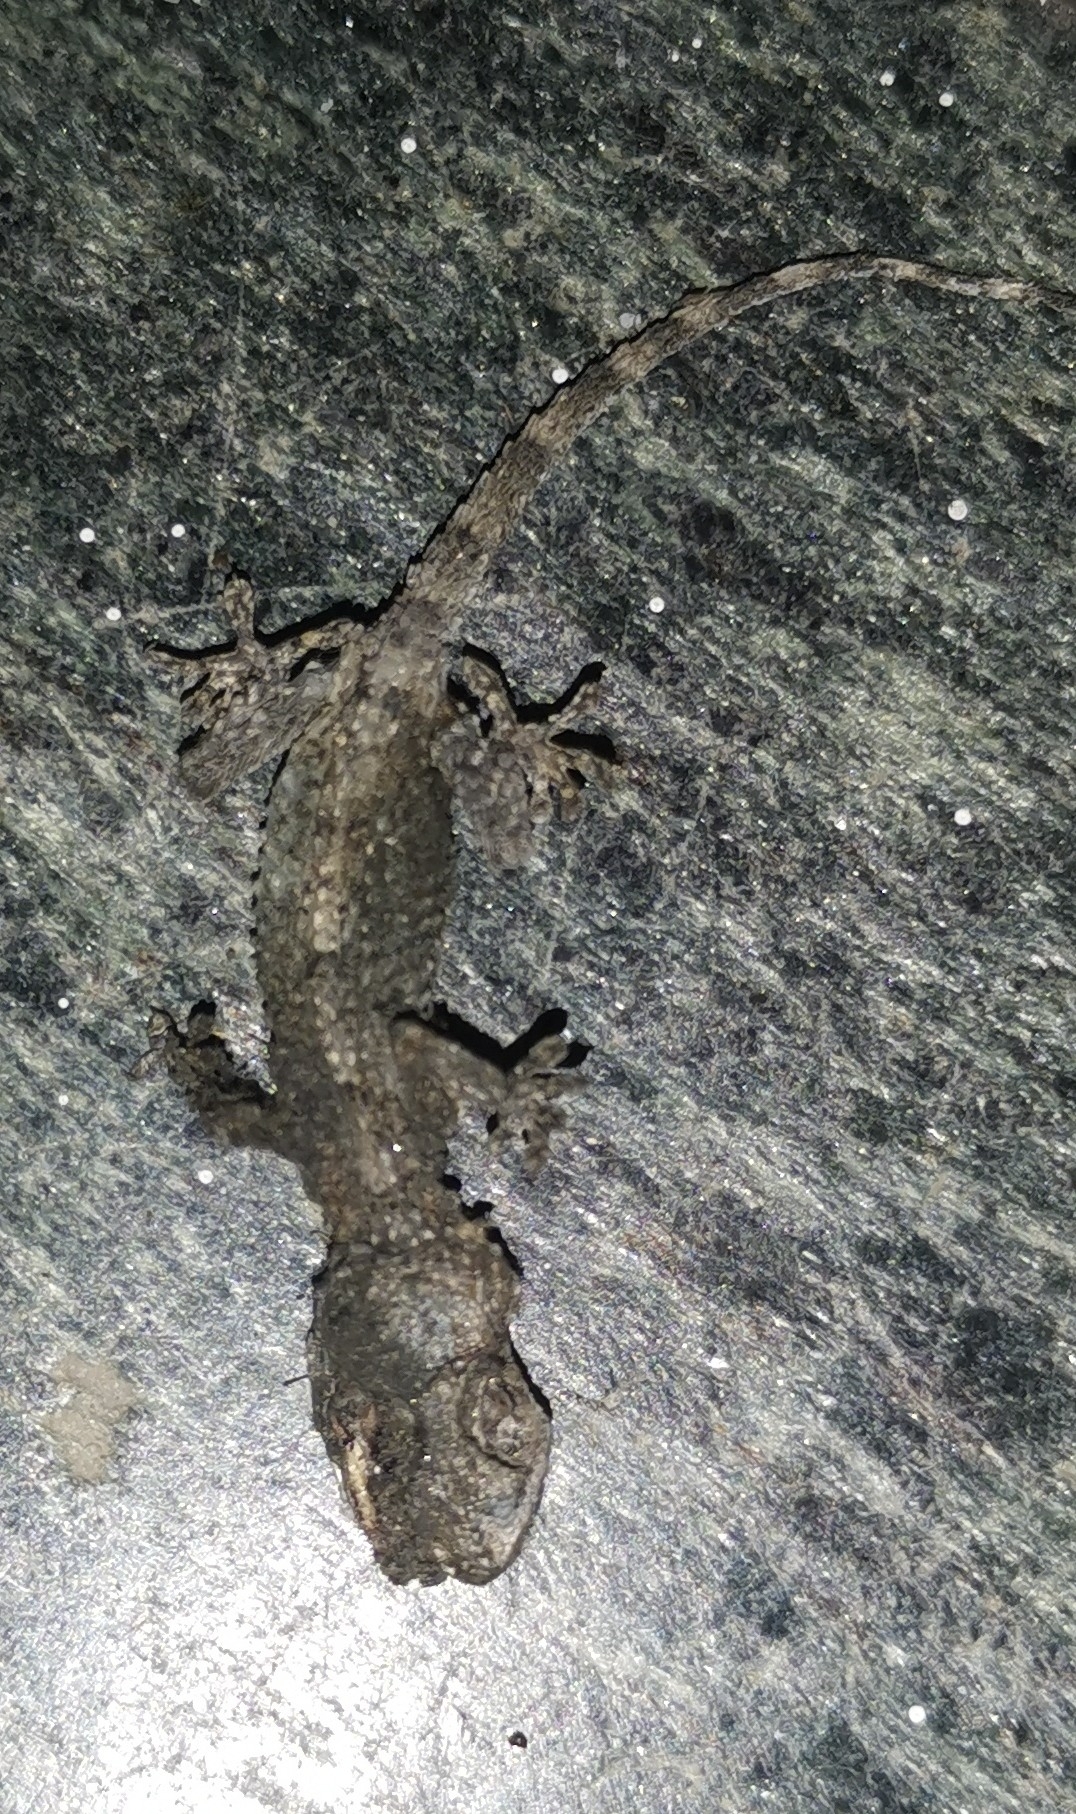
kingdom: Animalia
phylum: Chordata
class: Squamata
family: Phyllodactylidae
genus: Tarentola
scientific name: Tarentola mauritanica
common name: Moorish gecko
